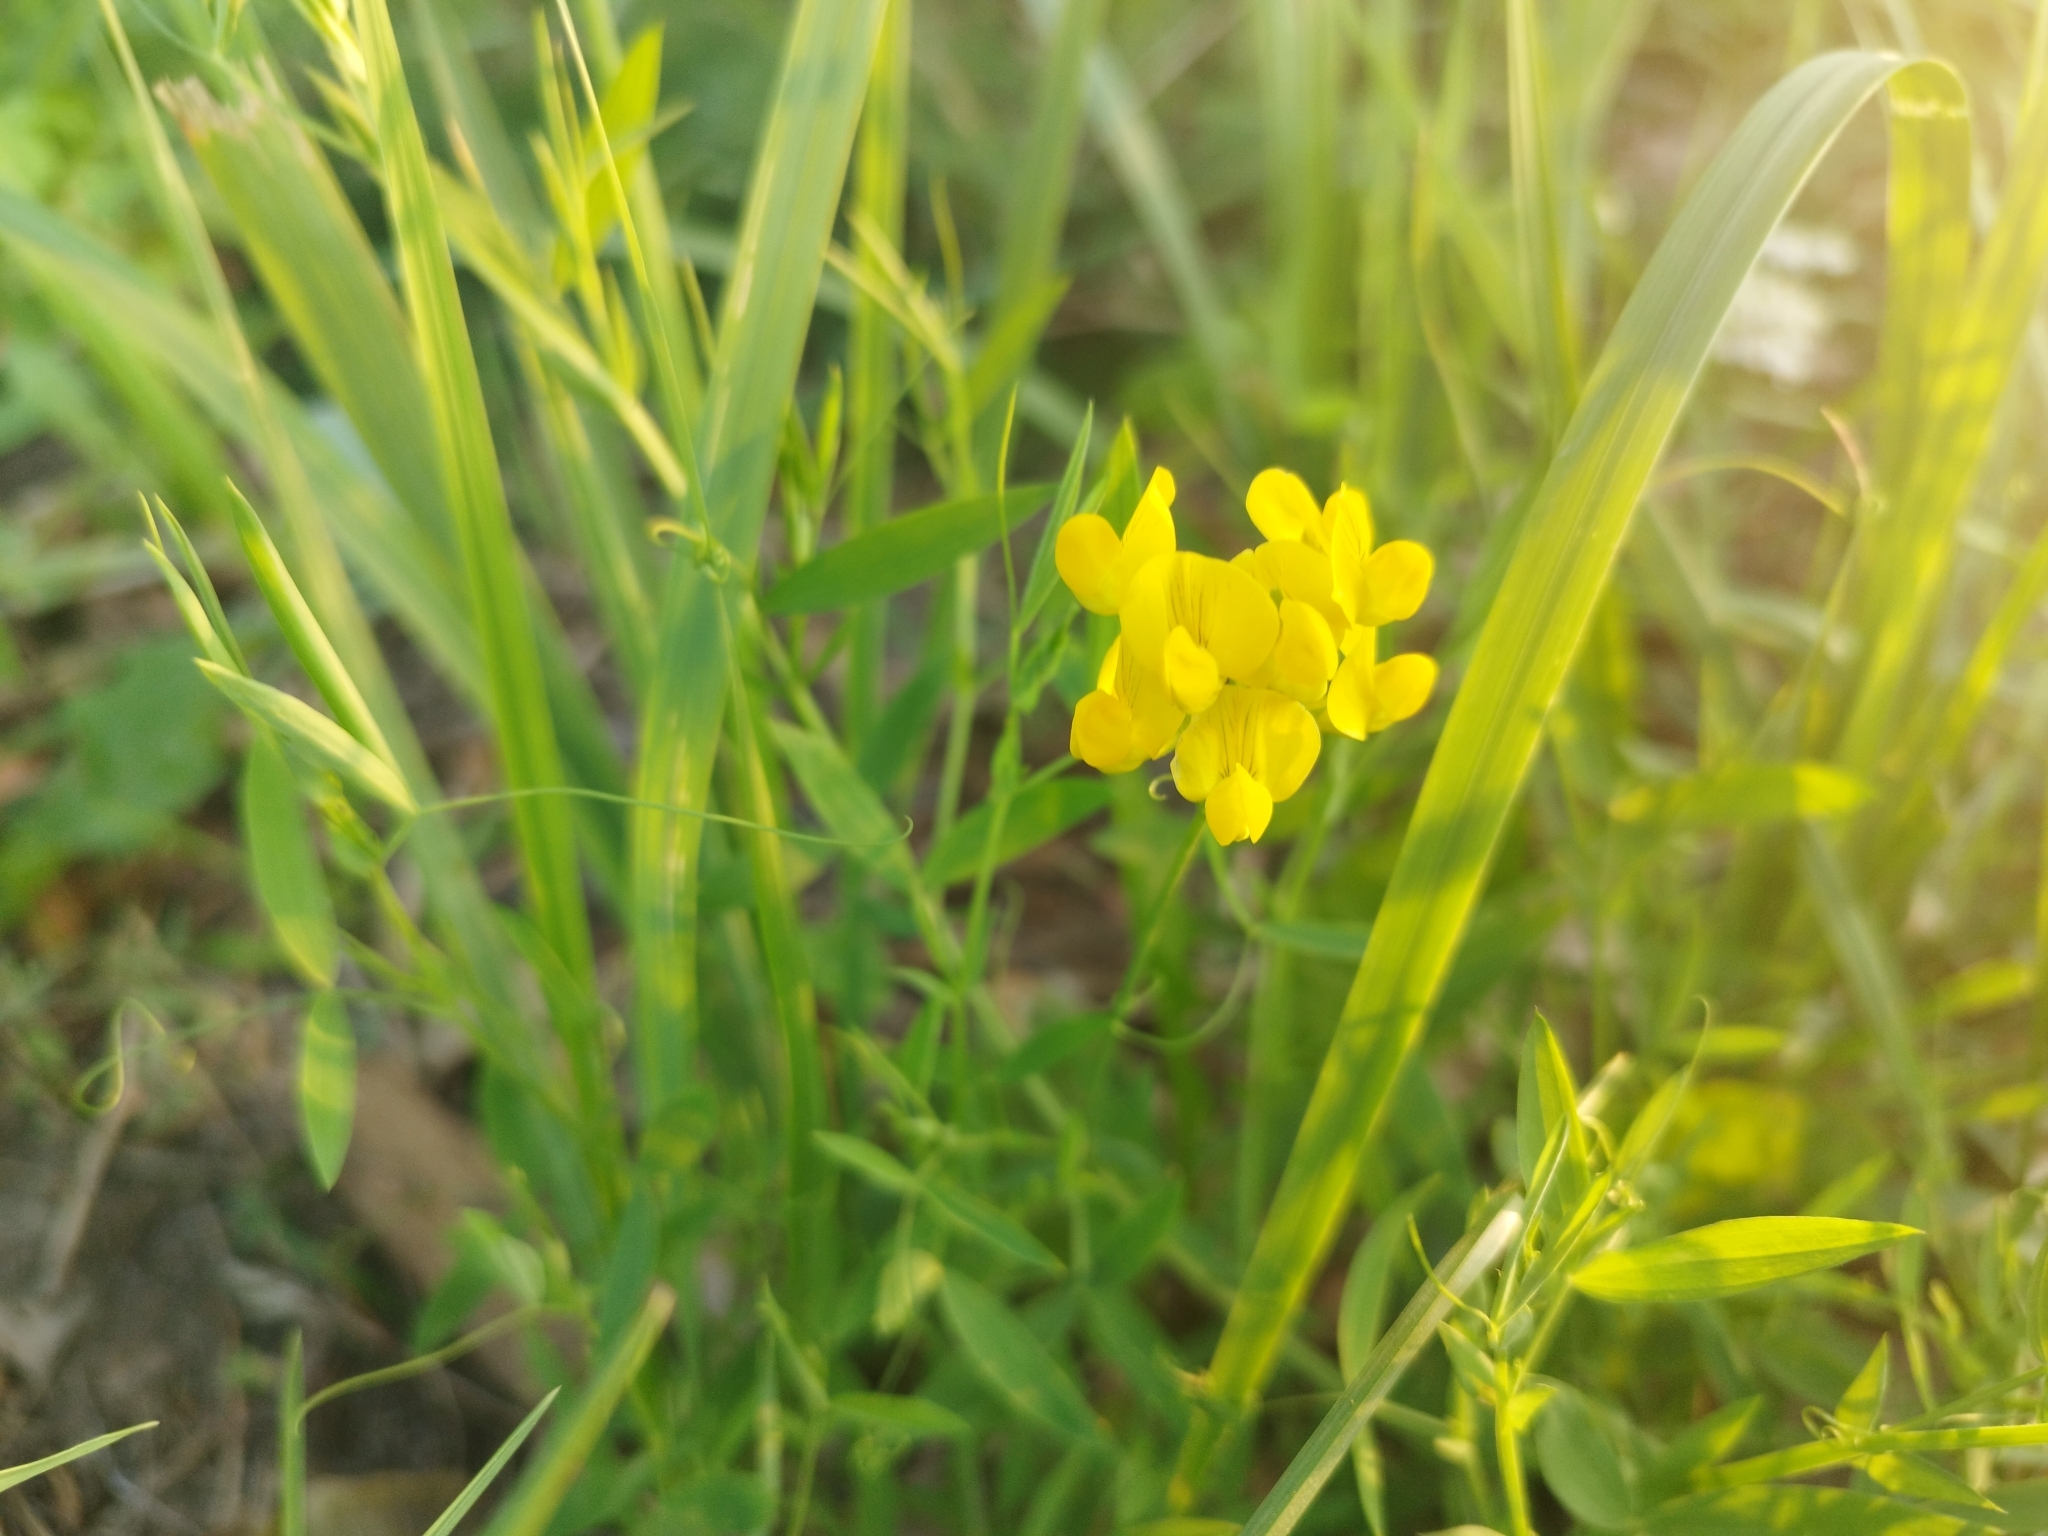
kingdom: Plantae
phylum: Tracheophyta
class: Magnoliopsida
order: Fabales
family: Fabaceae
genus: Lathyrus
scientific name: Lathyrus pratensis
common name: Meadow vetchling
